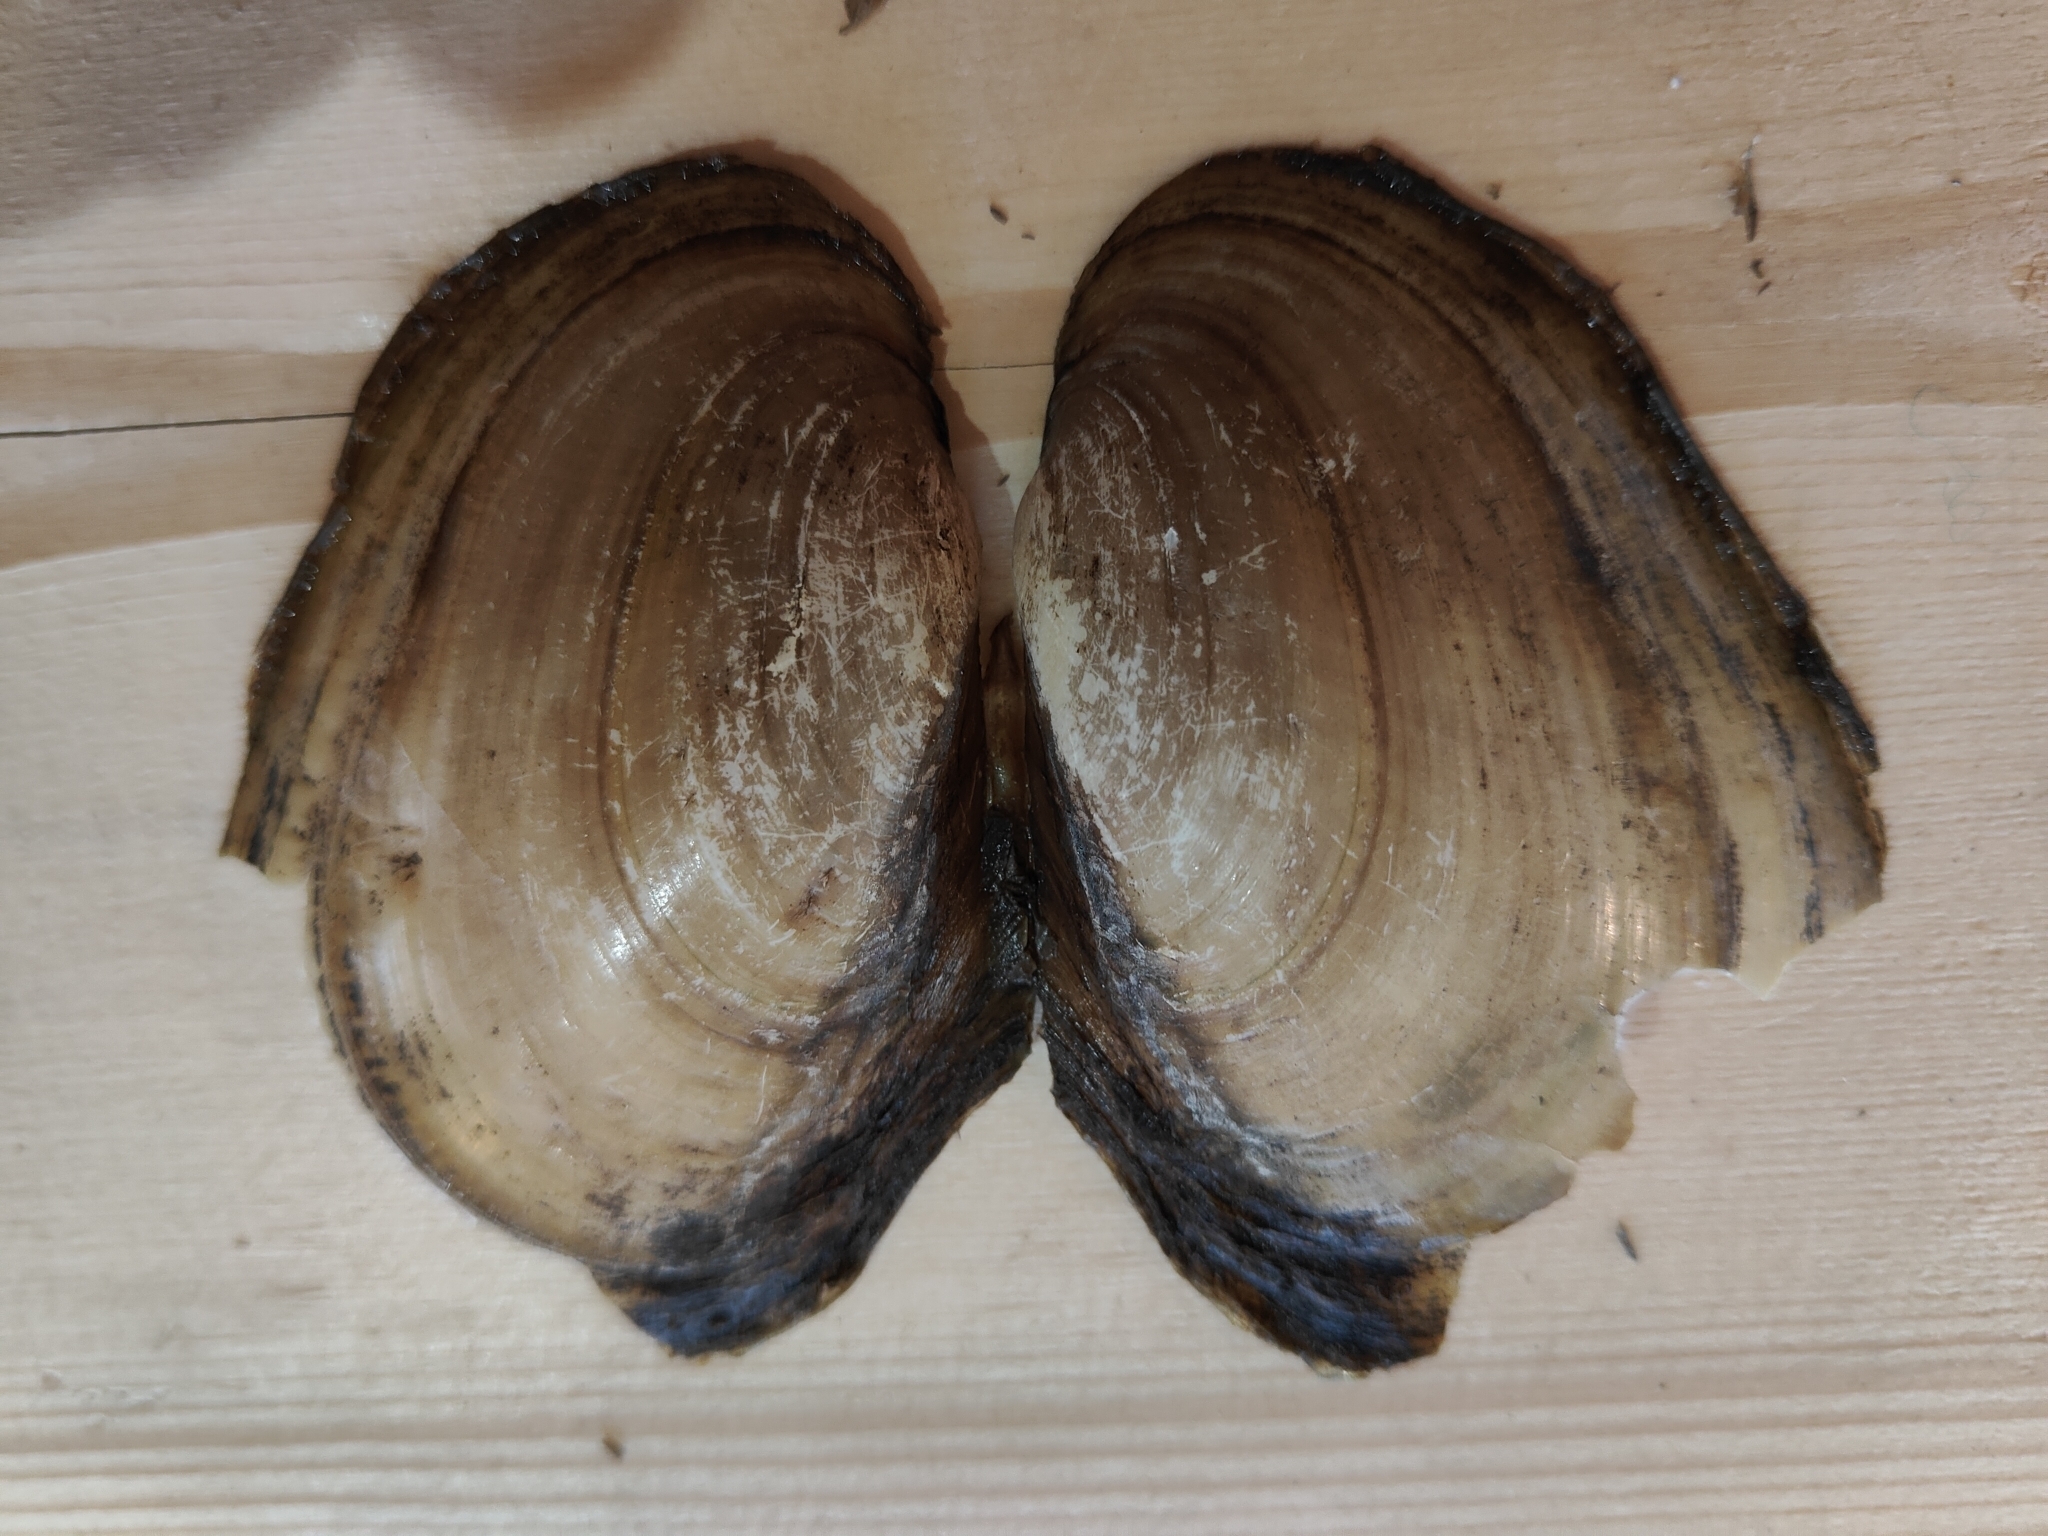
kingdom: Animalia
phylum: Mollusca
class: Bivalvia
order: Unionida
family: Unionidae
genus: Potamilus
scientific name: Potamilus fragilis
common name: Fragile papershell
